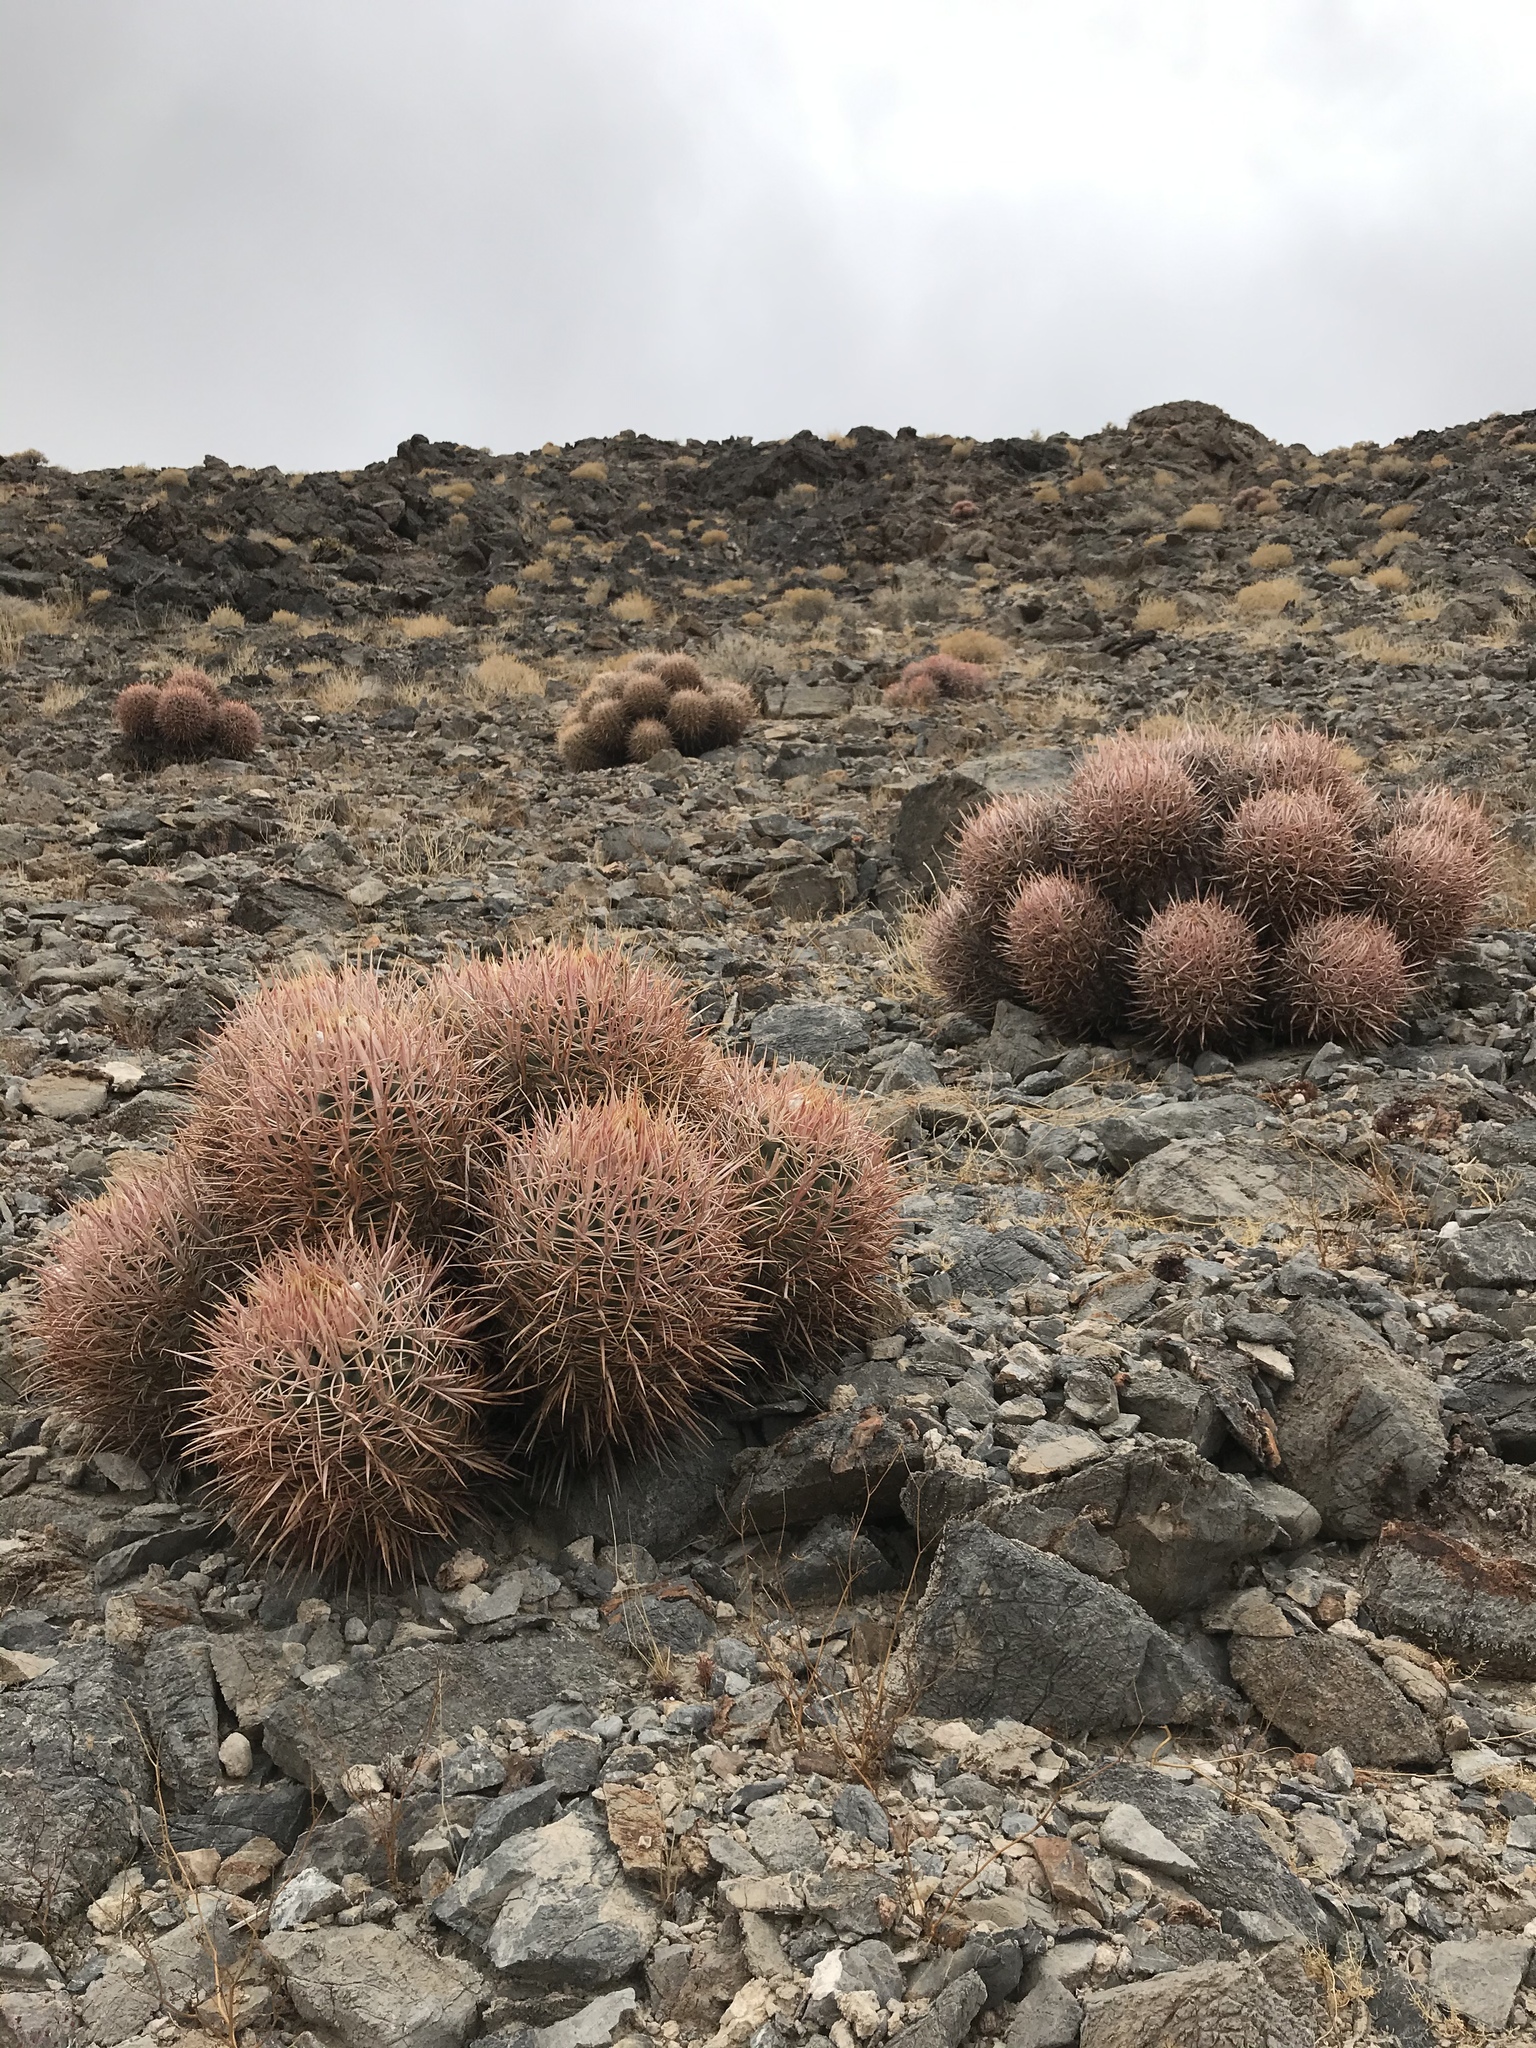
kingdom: Plantae
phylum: Tracheophyta
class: Magnoliopsida
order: Caryophyllales
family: Cactaceae
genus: Echinocactus
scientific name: Echinocactus polycephalus
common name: Cottontop cactus
